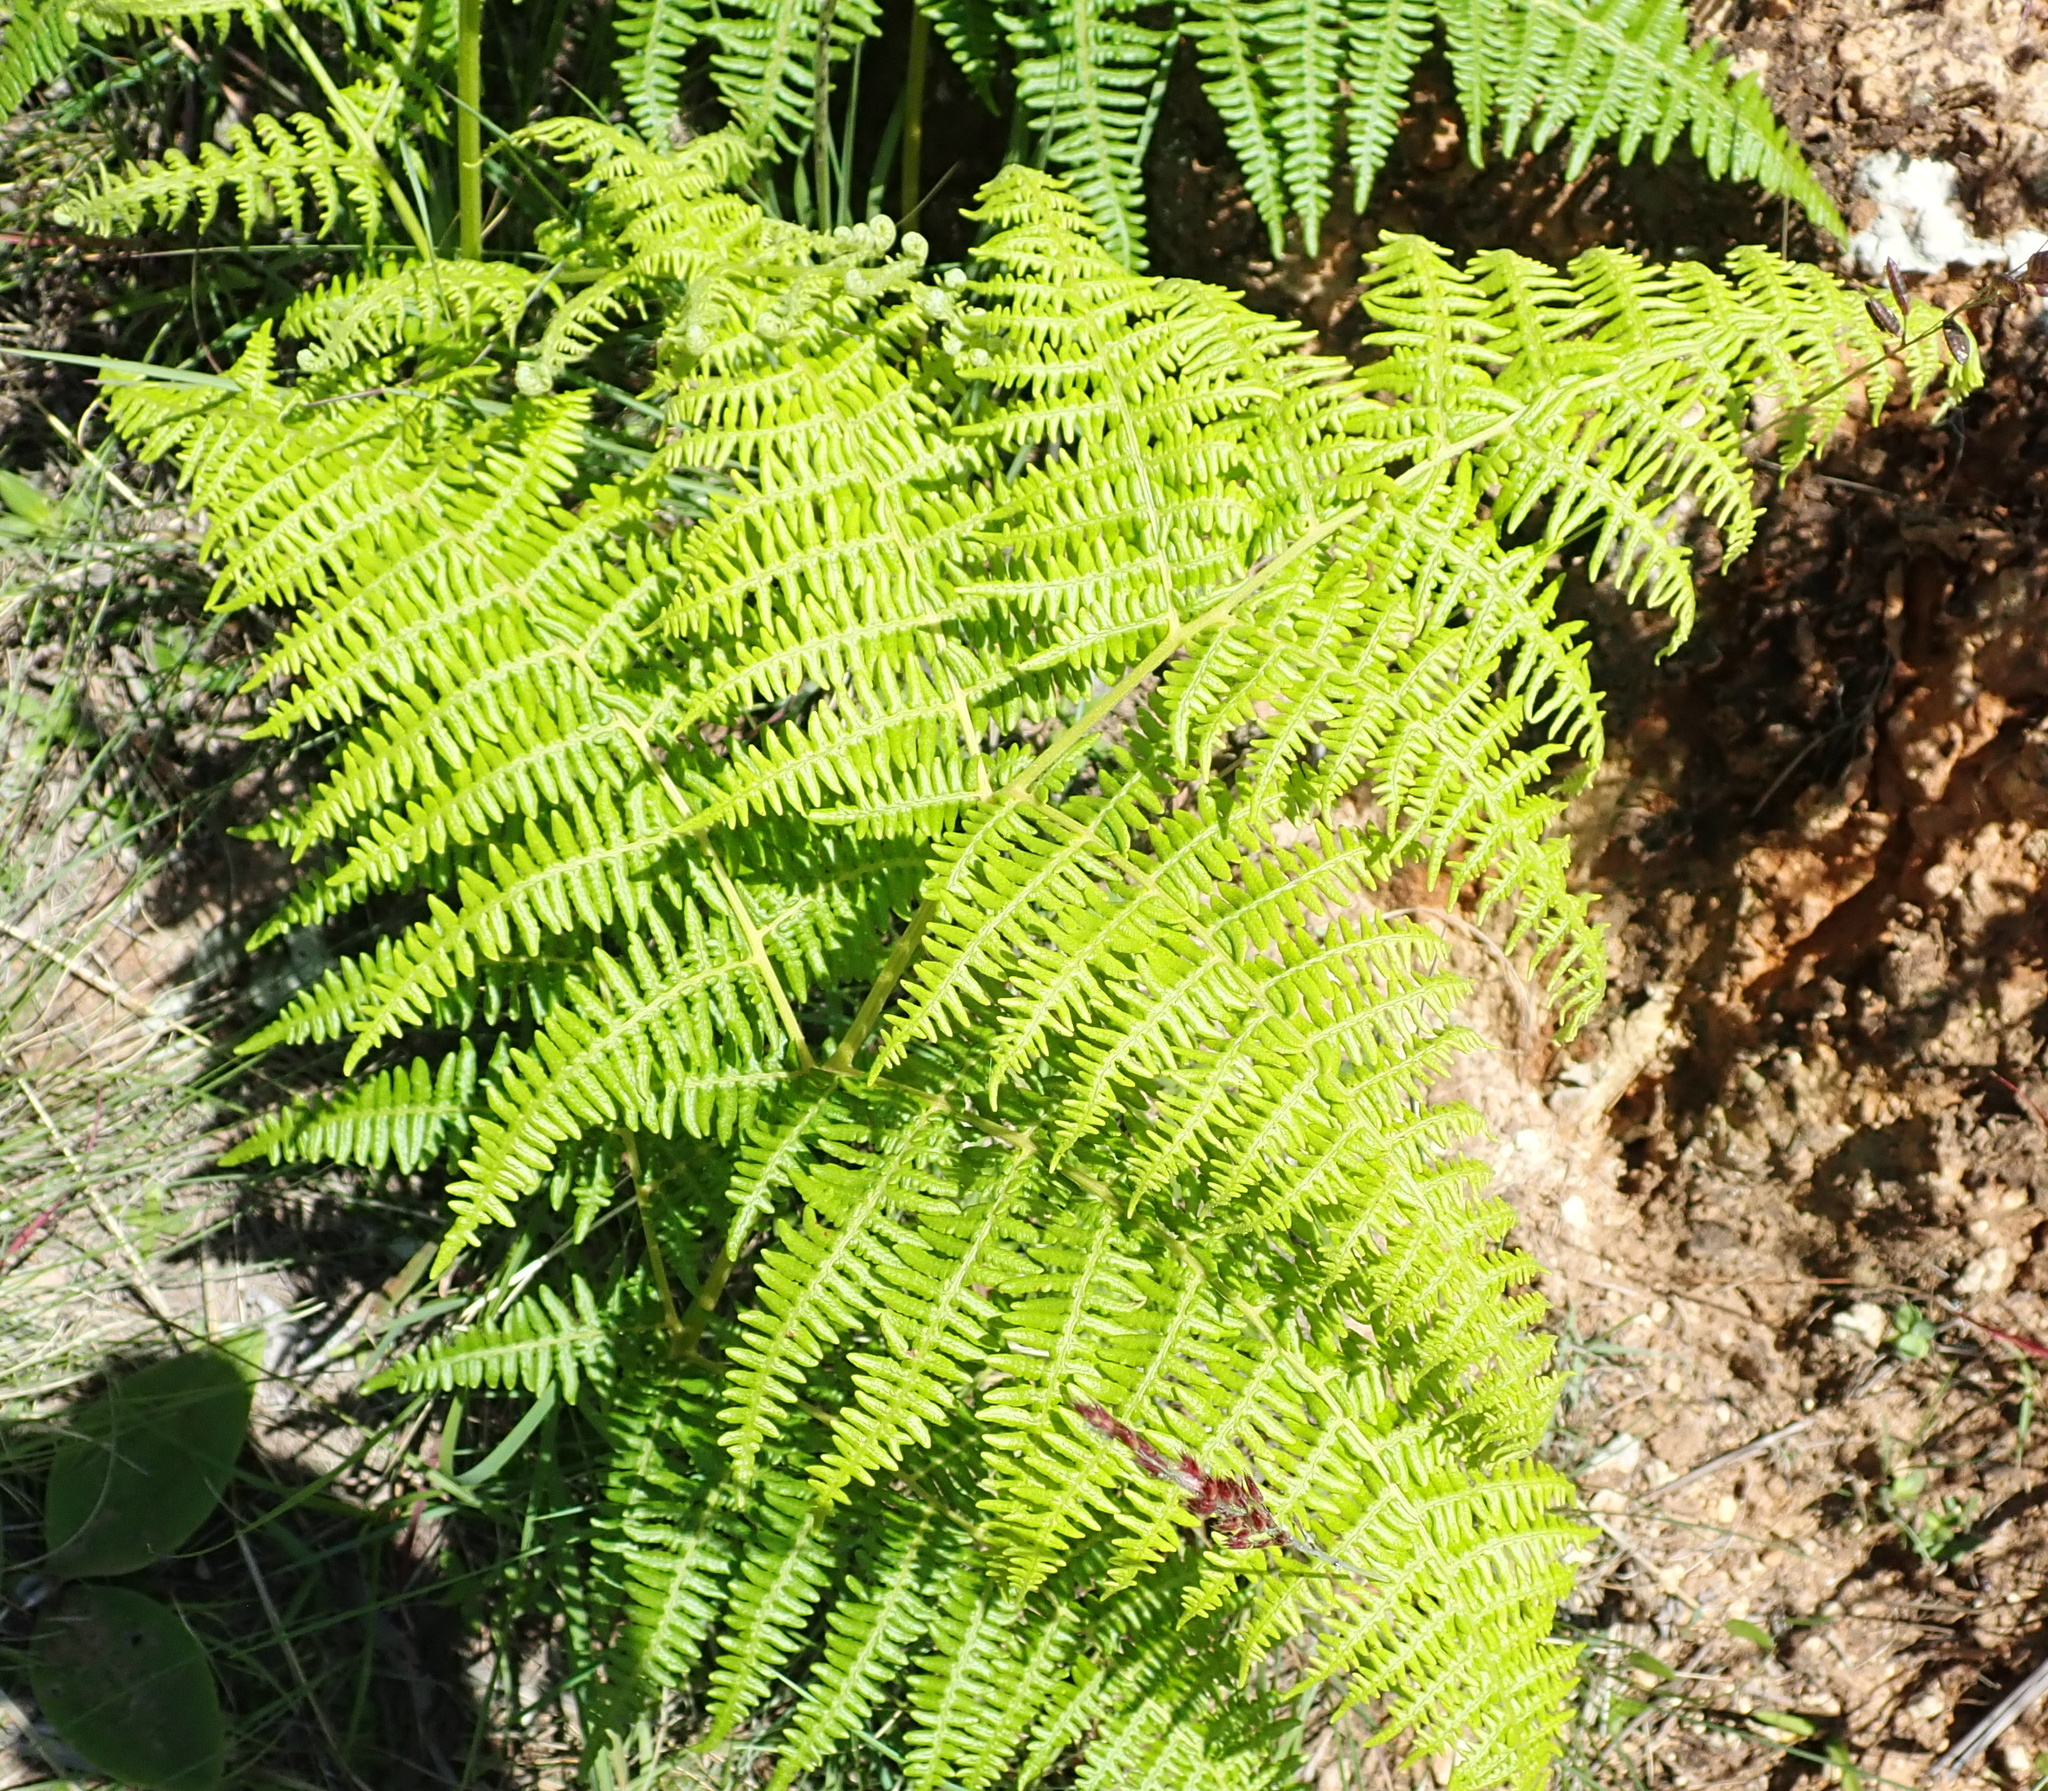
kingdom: Plantae
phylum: Tracheophyta
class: Polypodiopsida
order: Polypodiales
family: Dennstaedtiaceae
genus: Pteridium
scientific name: Pteridium aquilinum
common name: Bracken
